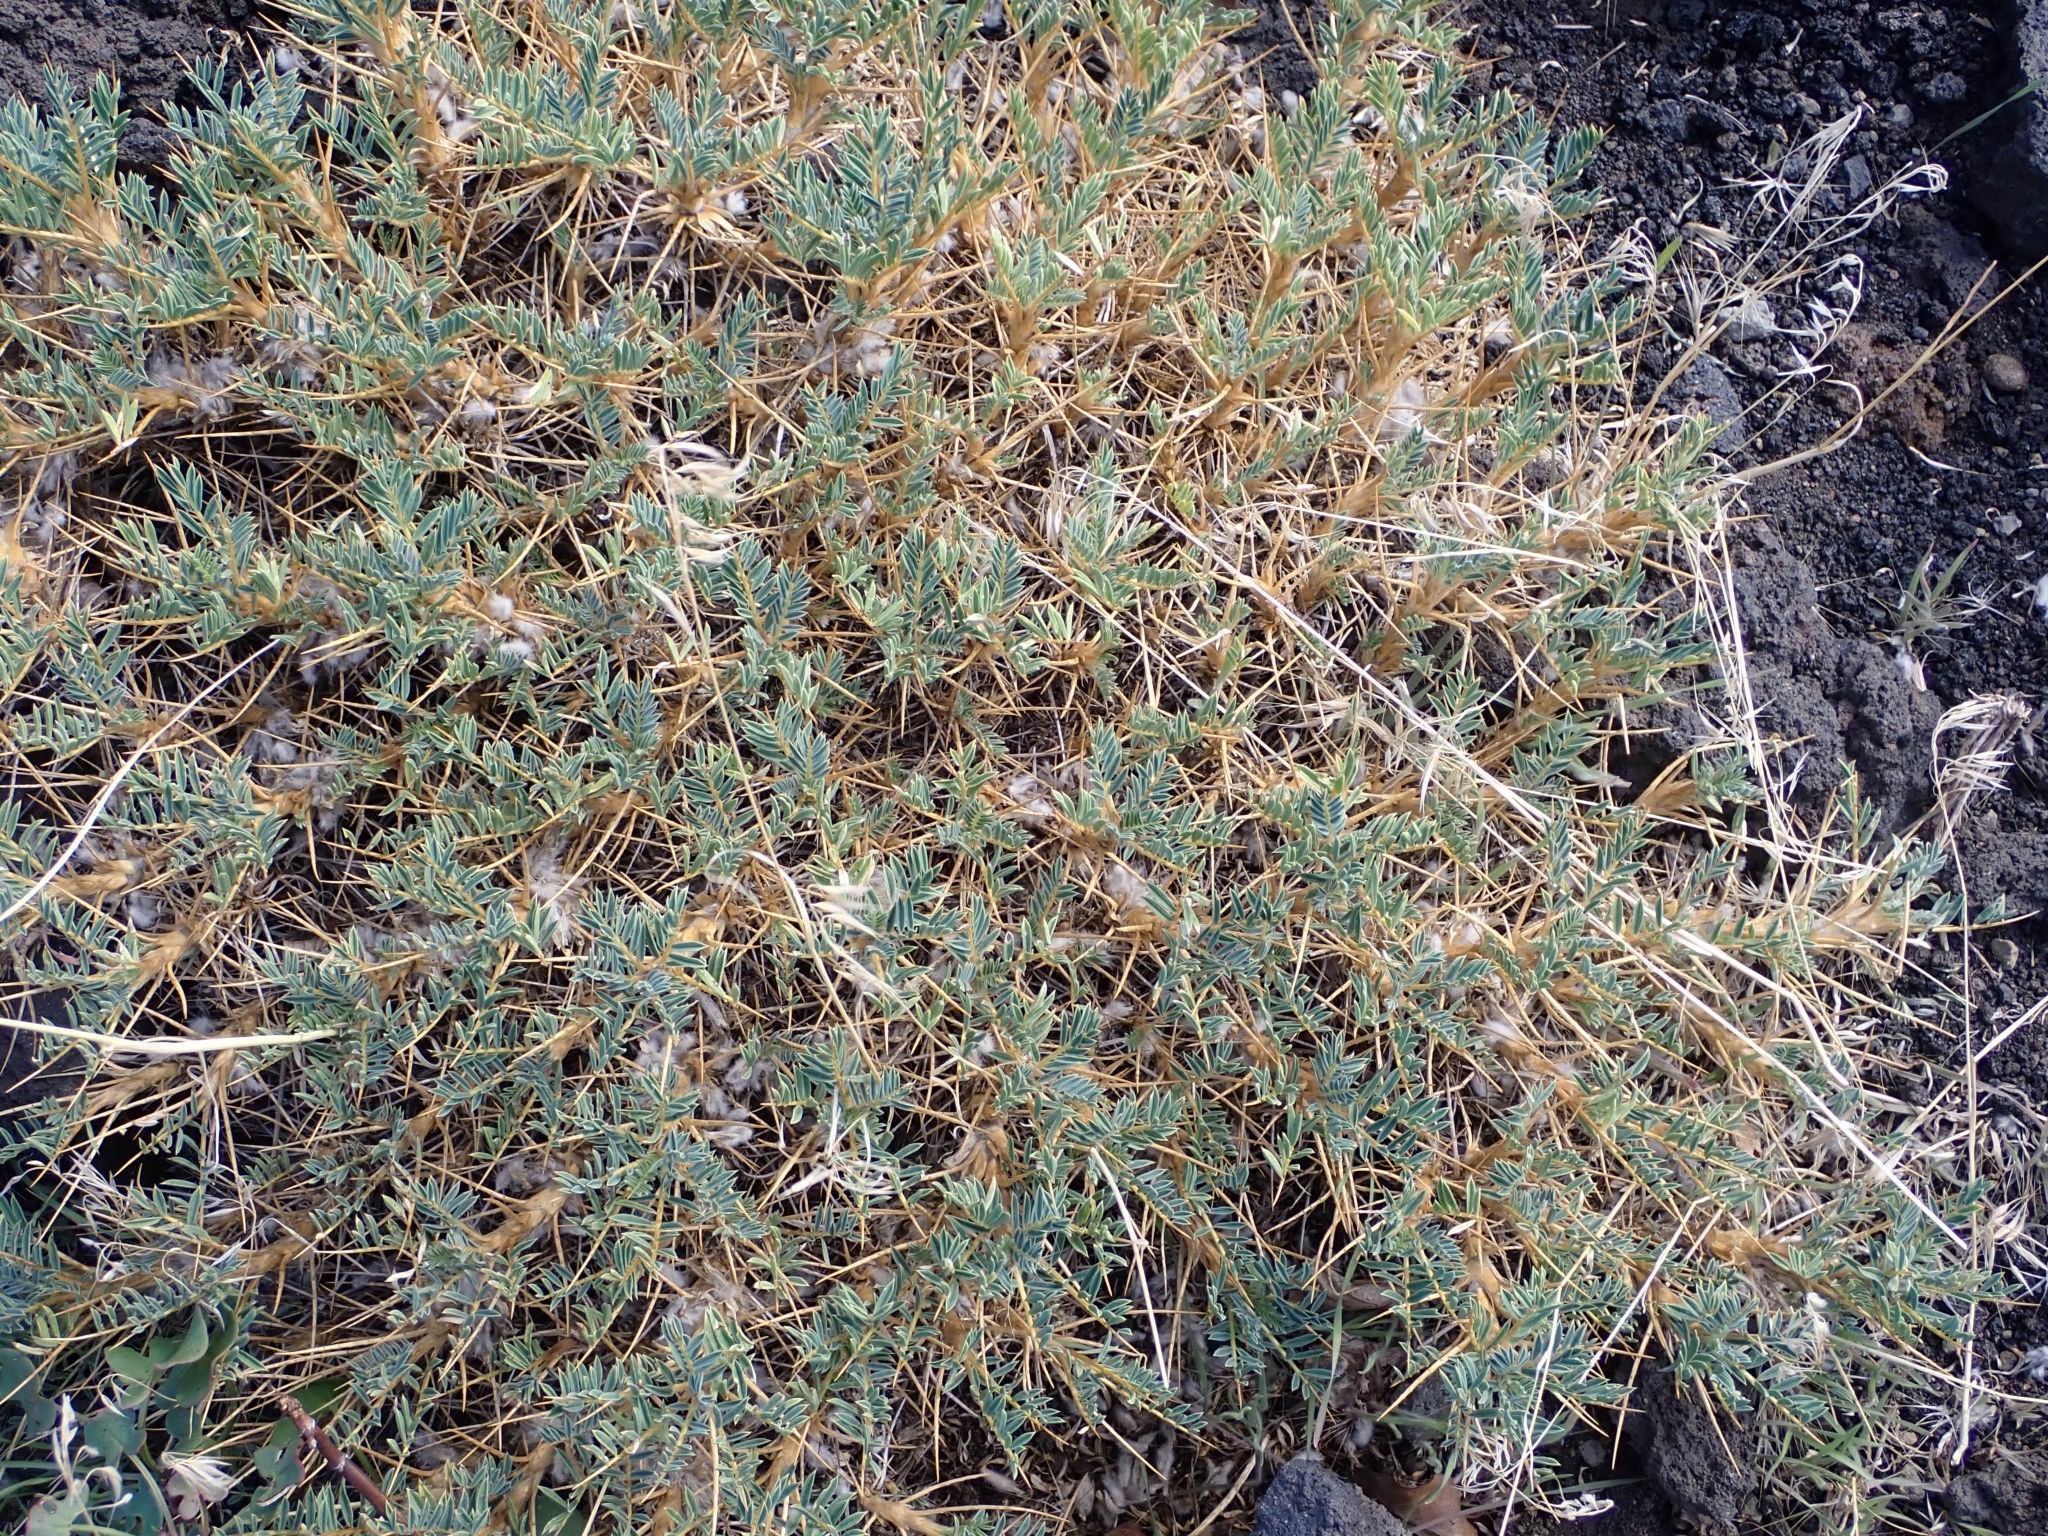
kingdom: Plantae
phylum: Tracheophyta
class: Magnoliopsida
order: Fabales
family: Fabaceae
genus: Astragalus
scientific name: Astragalus siculus
